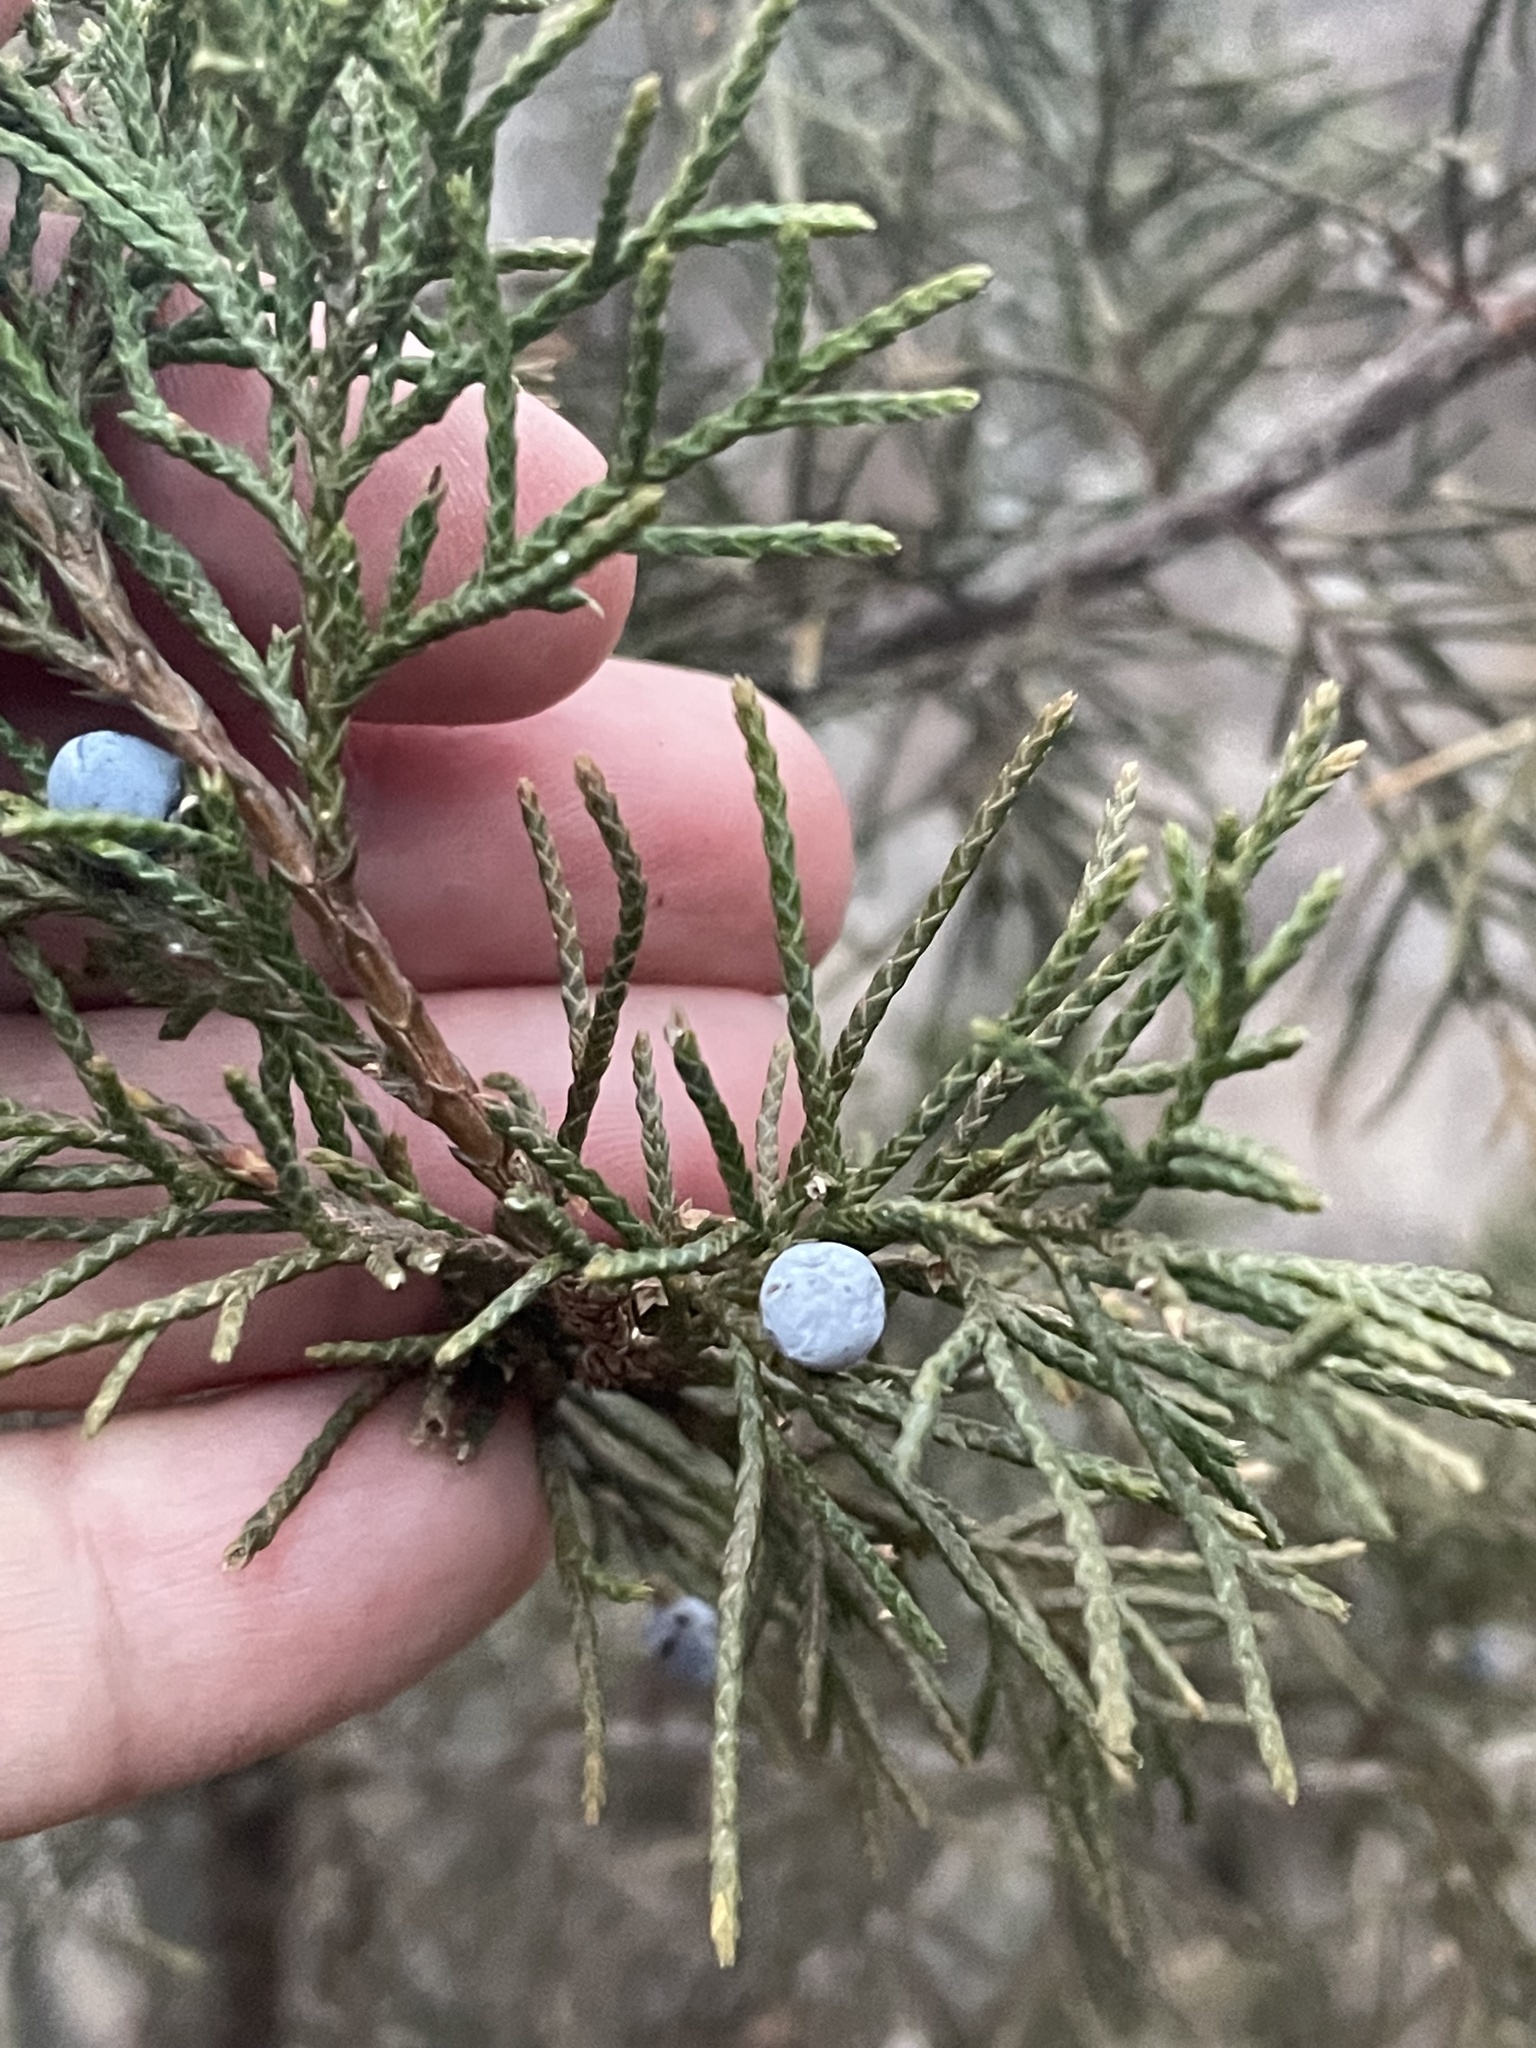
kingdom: Plantae
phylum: Tracheophyta
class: Pinopsida
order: Pinales
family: Cupressaceae
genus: Juniperus
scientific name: Juniperus virginiana
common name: Red juniper
